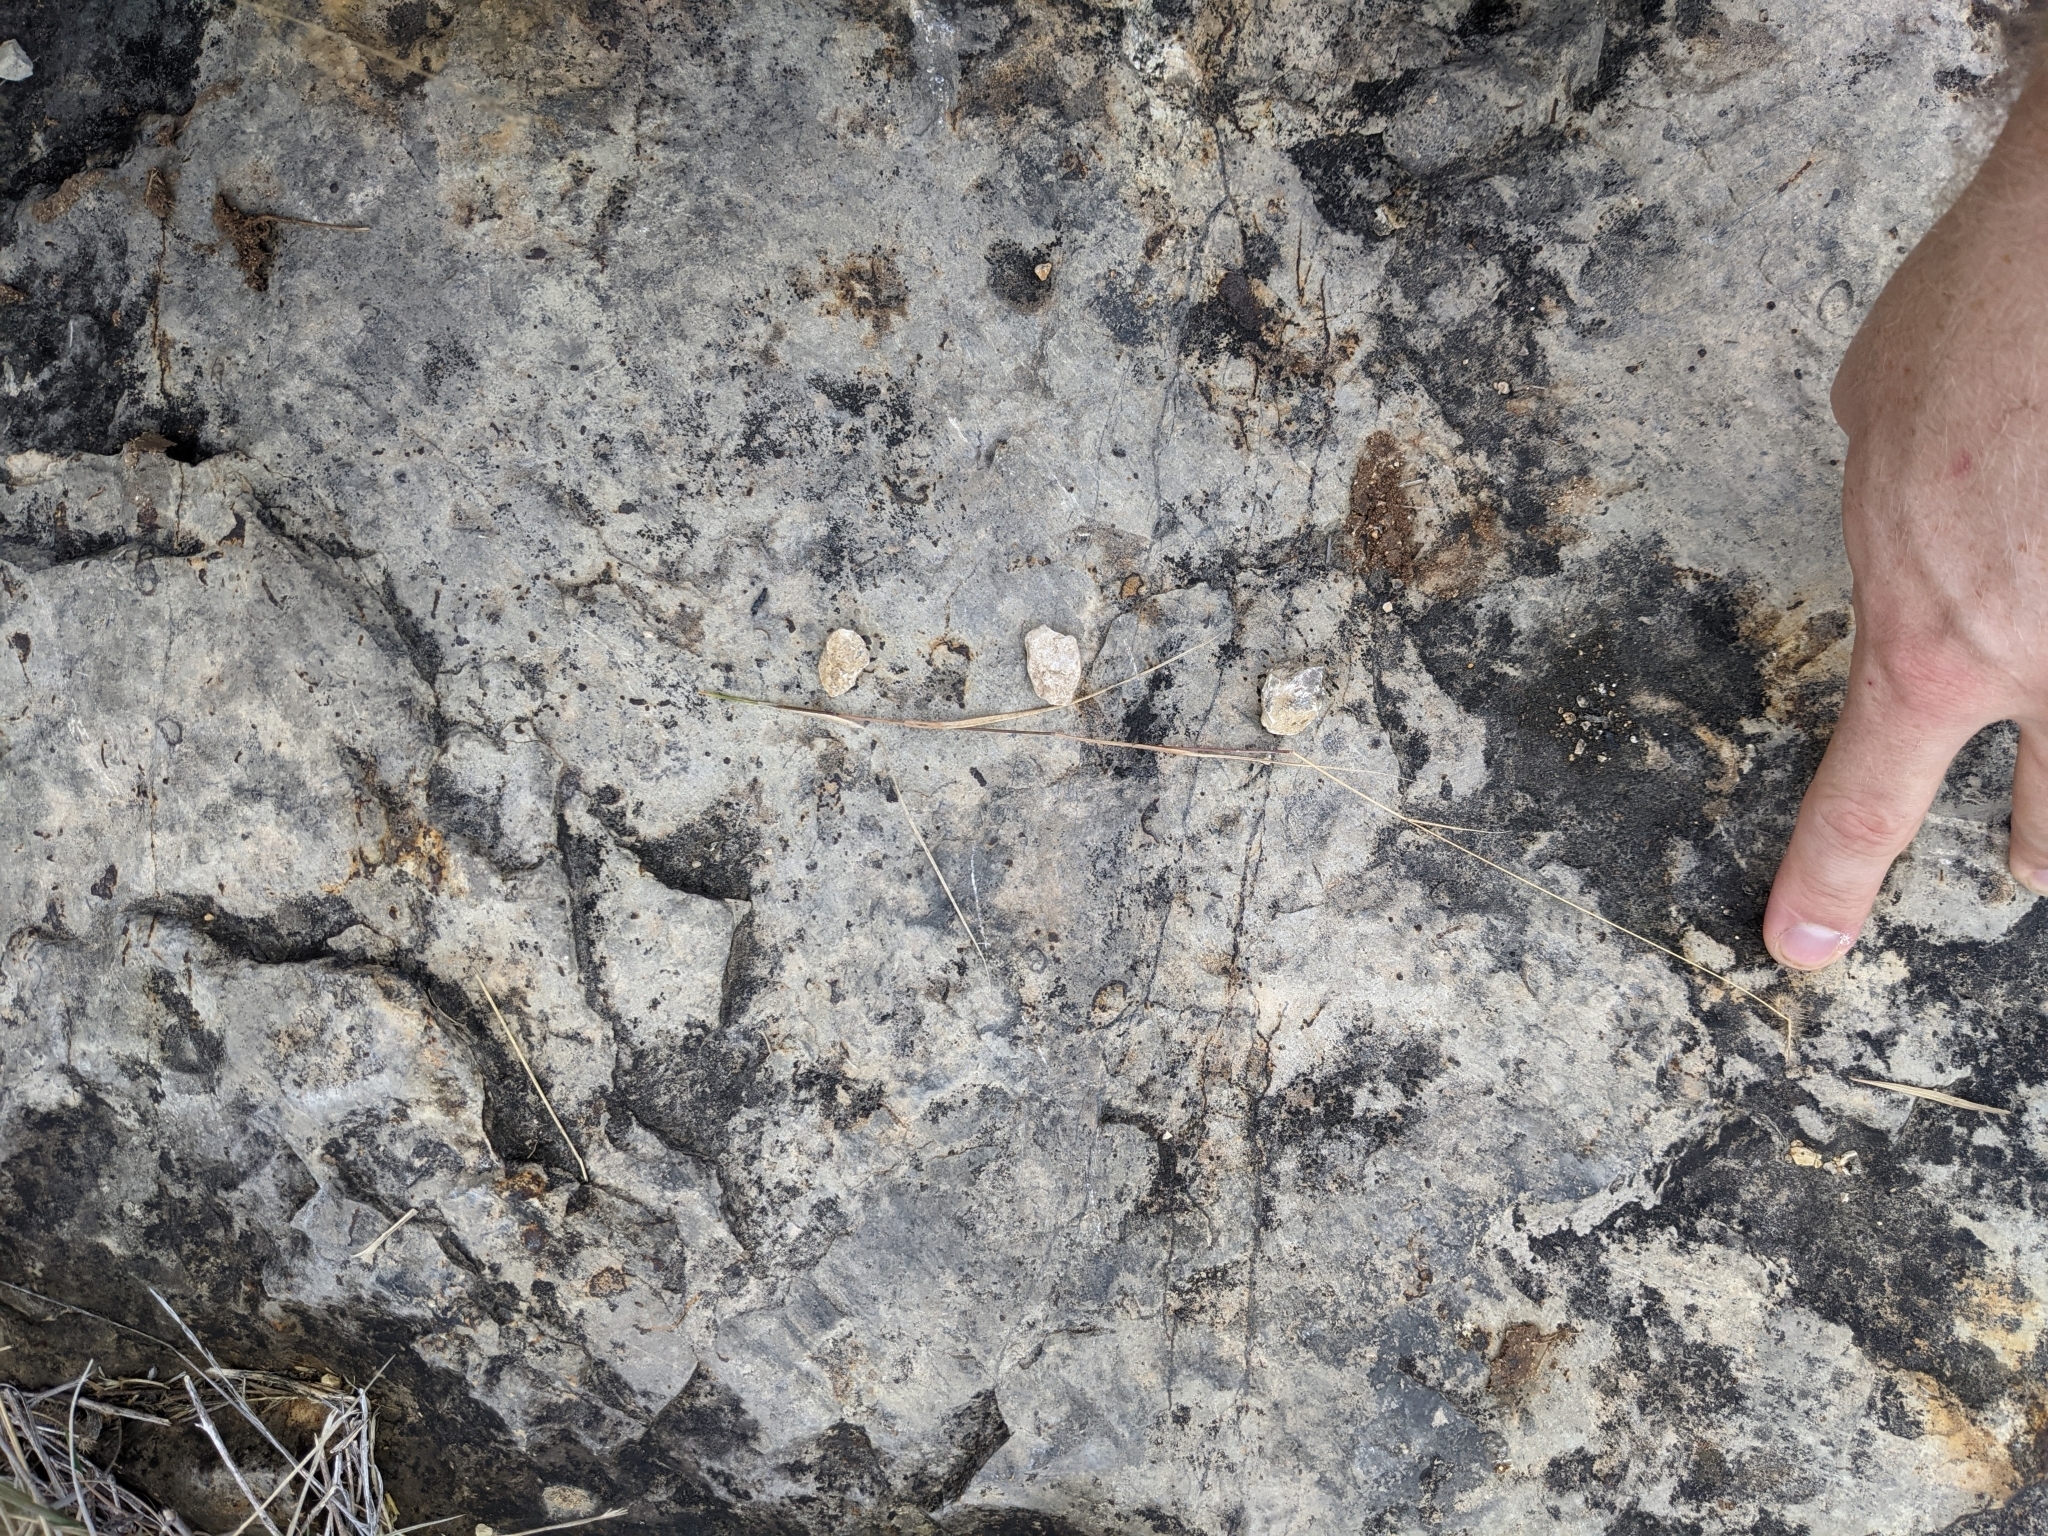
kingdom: Plantae
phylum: Tracheophyta
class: Liliopsida
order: Poales
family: Poaceae
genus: Bouteloua
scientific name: Bouteloua hirsuta
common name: Hairy grama
